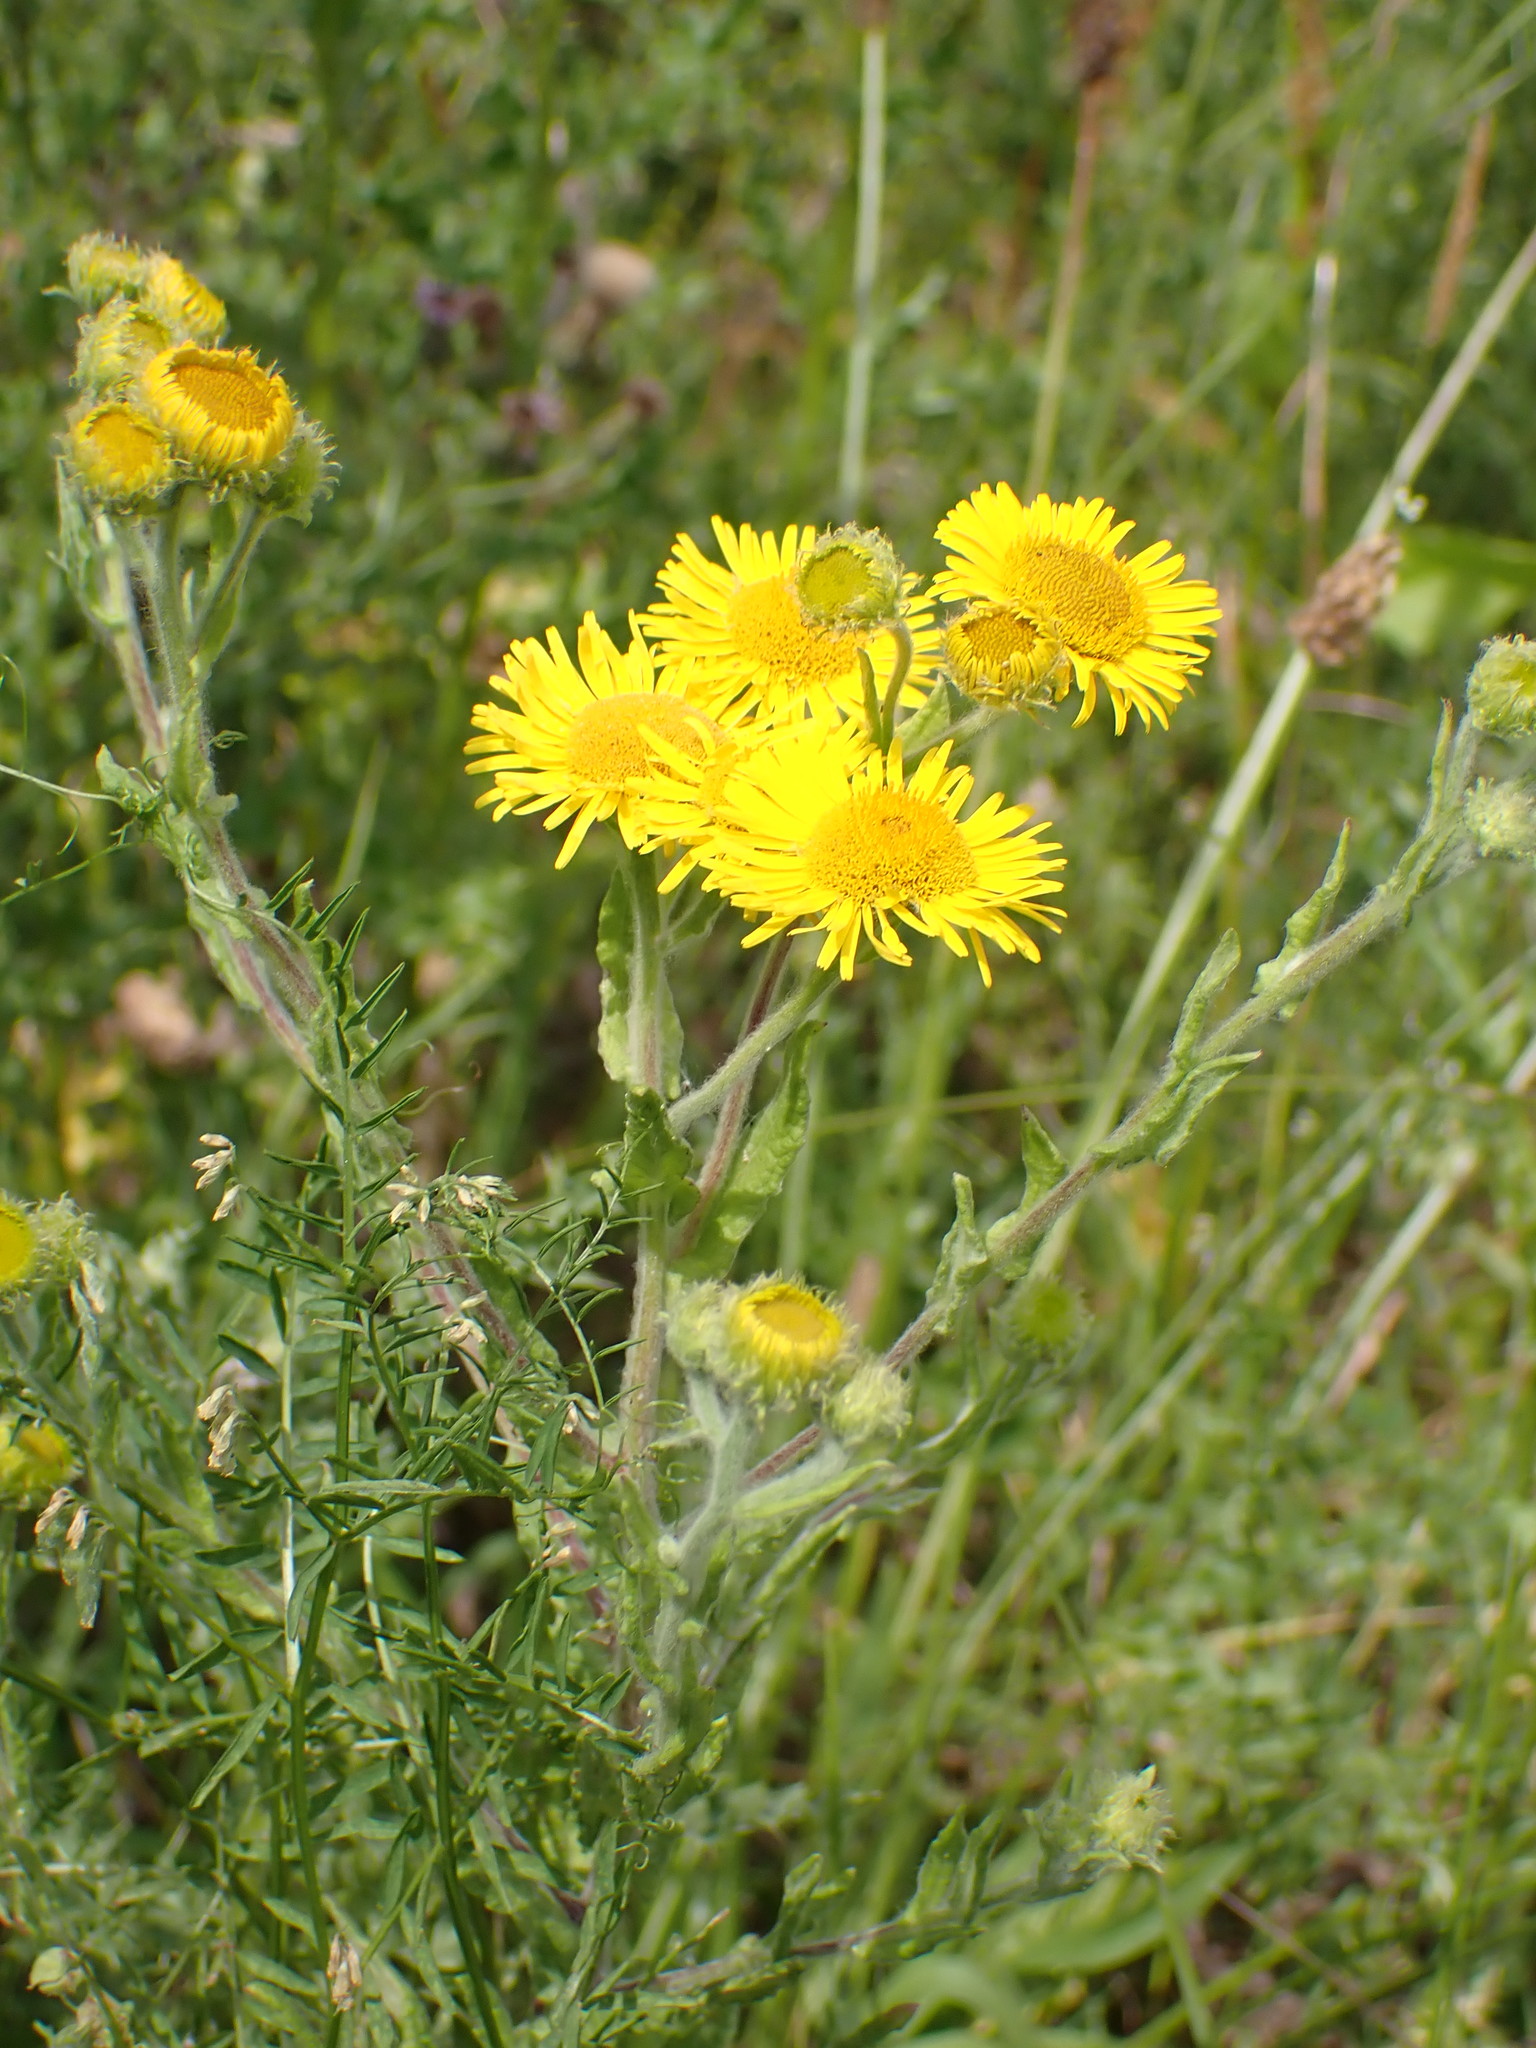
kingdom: Plantae
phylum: Tracheophyta
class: Magnoliopsida
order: Asterales
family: Asteraceae
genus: Pulicaria
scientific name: Pulicaria dysenterica
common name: Common fleabane
